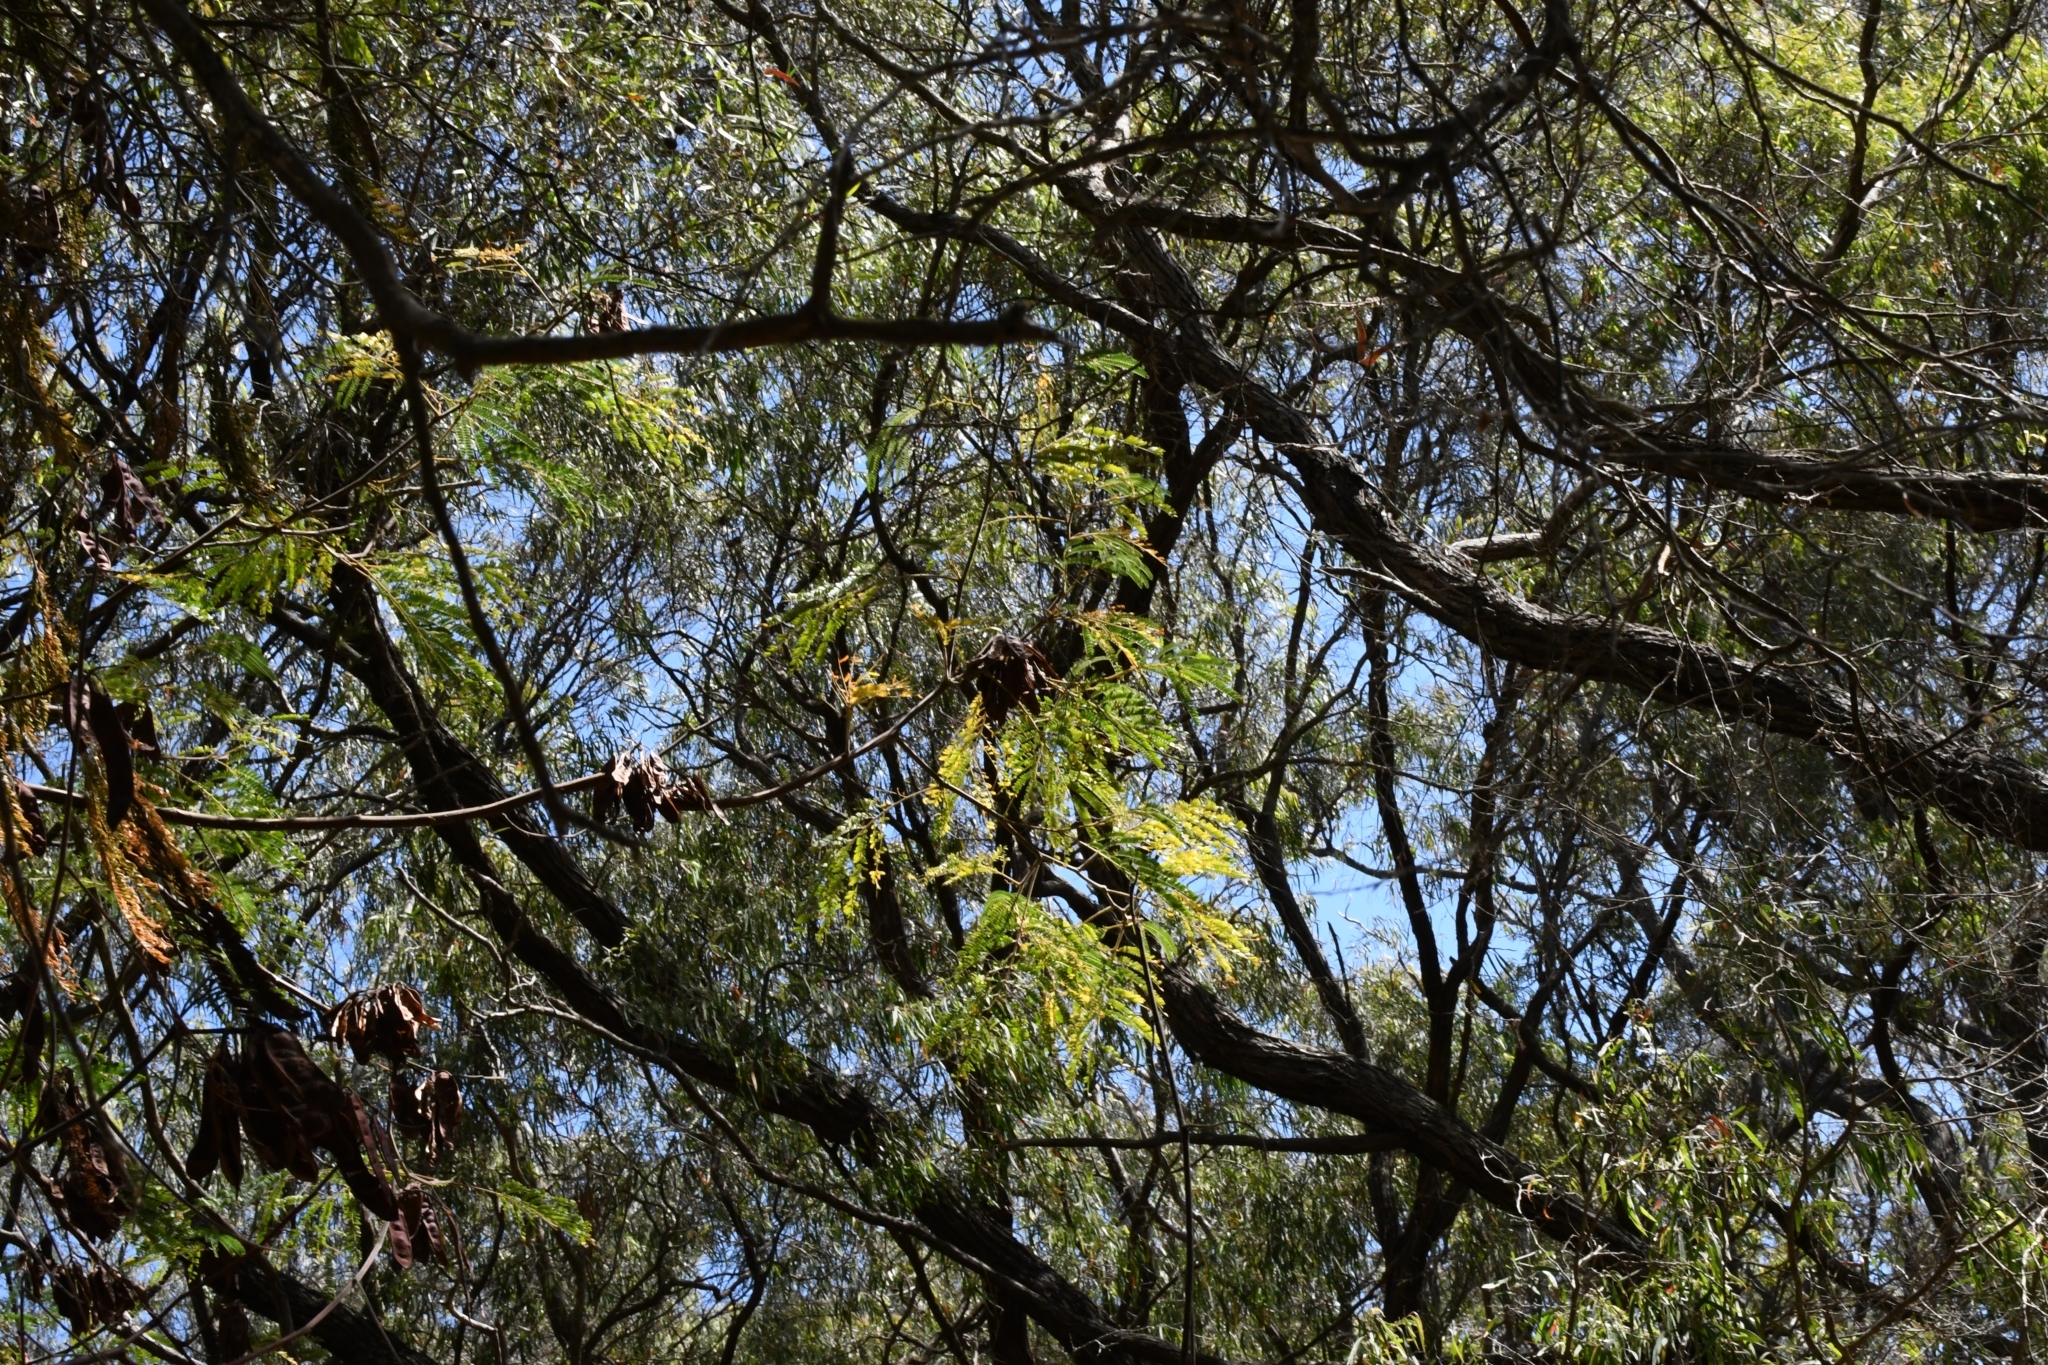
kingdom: Plantae
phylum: Tracheophyta
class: Magnoliopsida
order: Fabales
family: Fabaceae
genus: Paraserianthes
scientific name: Paraserianthes lophantha
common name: Plume albizia
